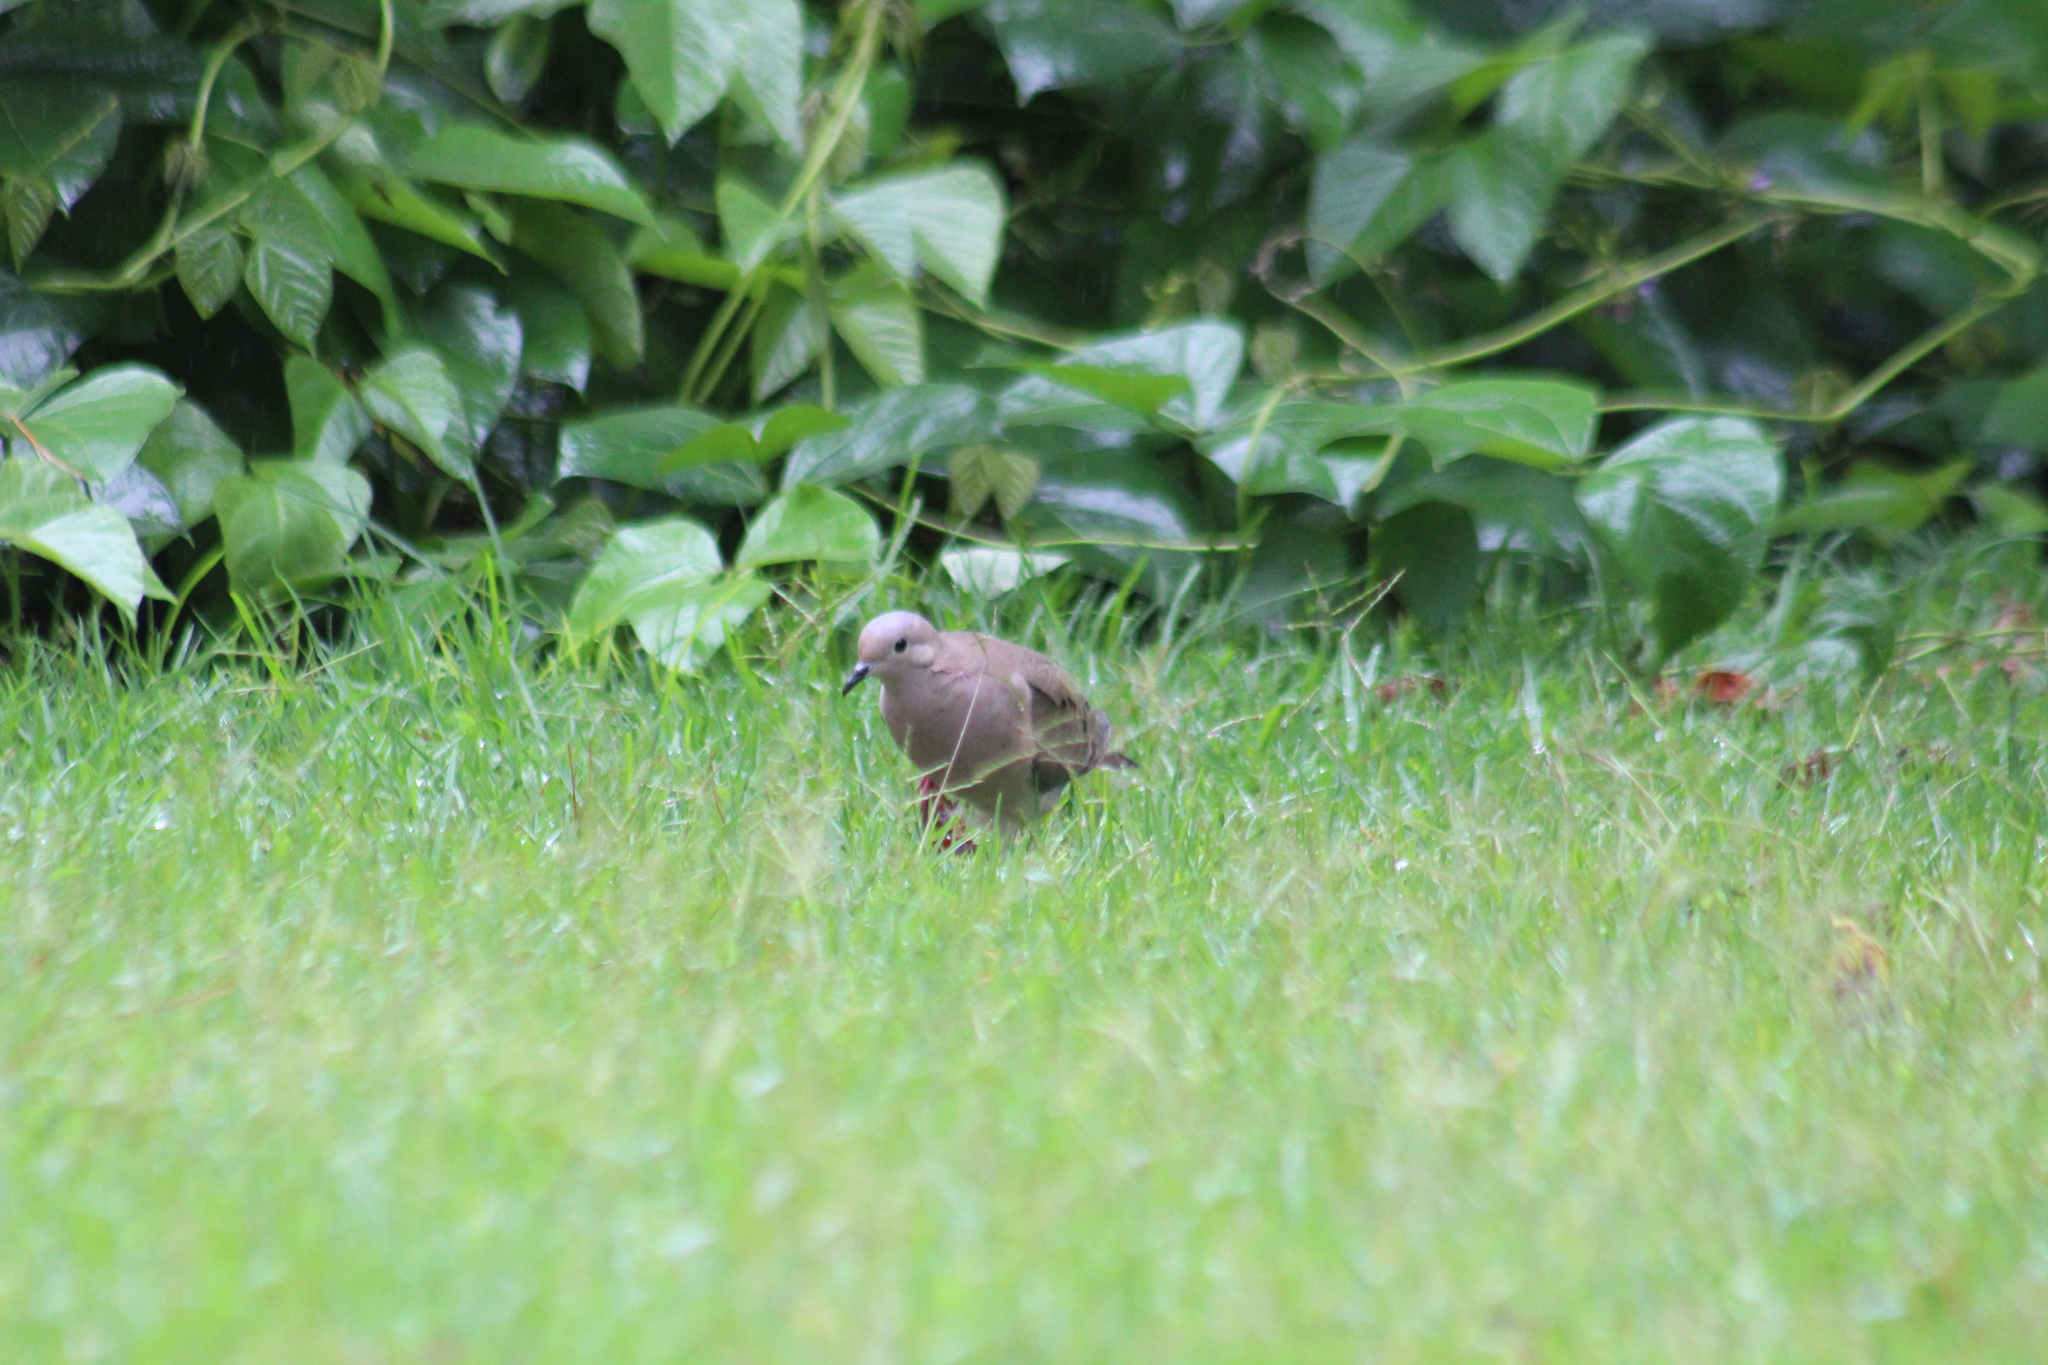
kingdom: Animalia
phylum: Chordata
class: Aves
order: Columbiformes
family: Columbidae
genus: Zenaida
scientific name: Zenaida auriculata
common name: Eared dove
